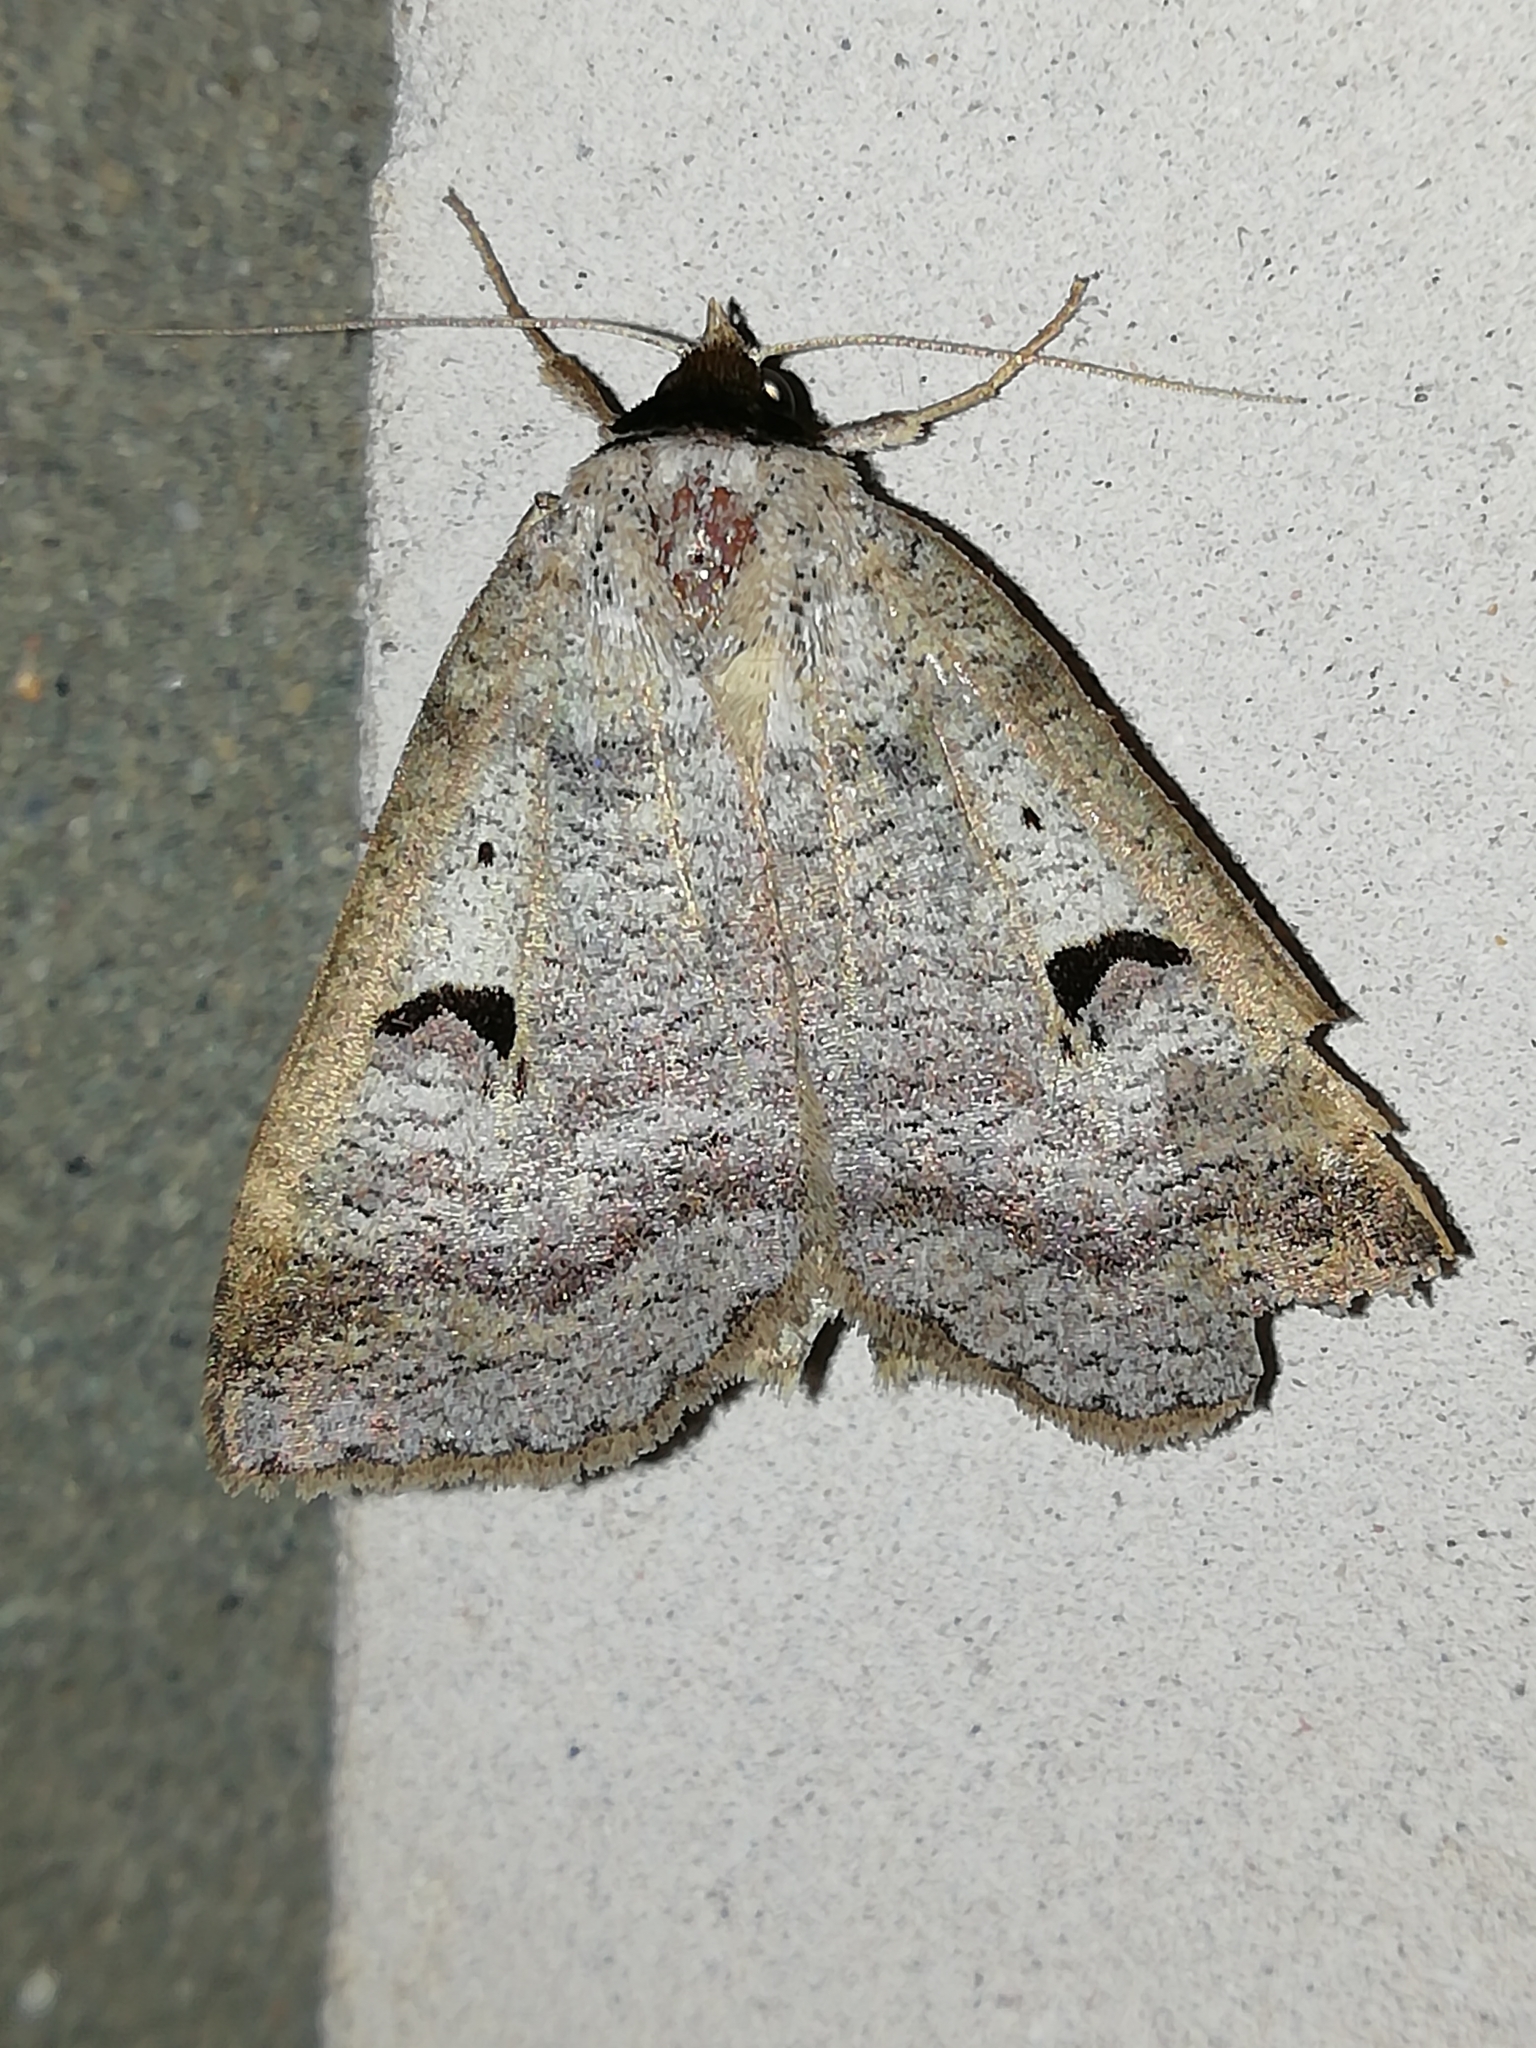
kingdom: Animalia
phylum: Arthropoda
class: Insecta
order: Lepidoptera
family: Erebidae
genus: Lygephila
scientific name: Lygephila pastinum
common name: Blackneck
